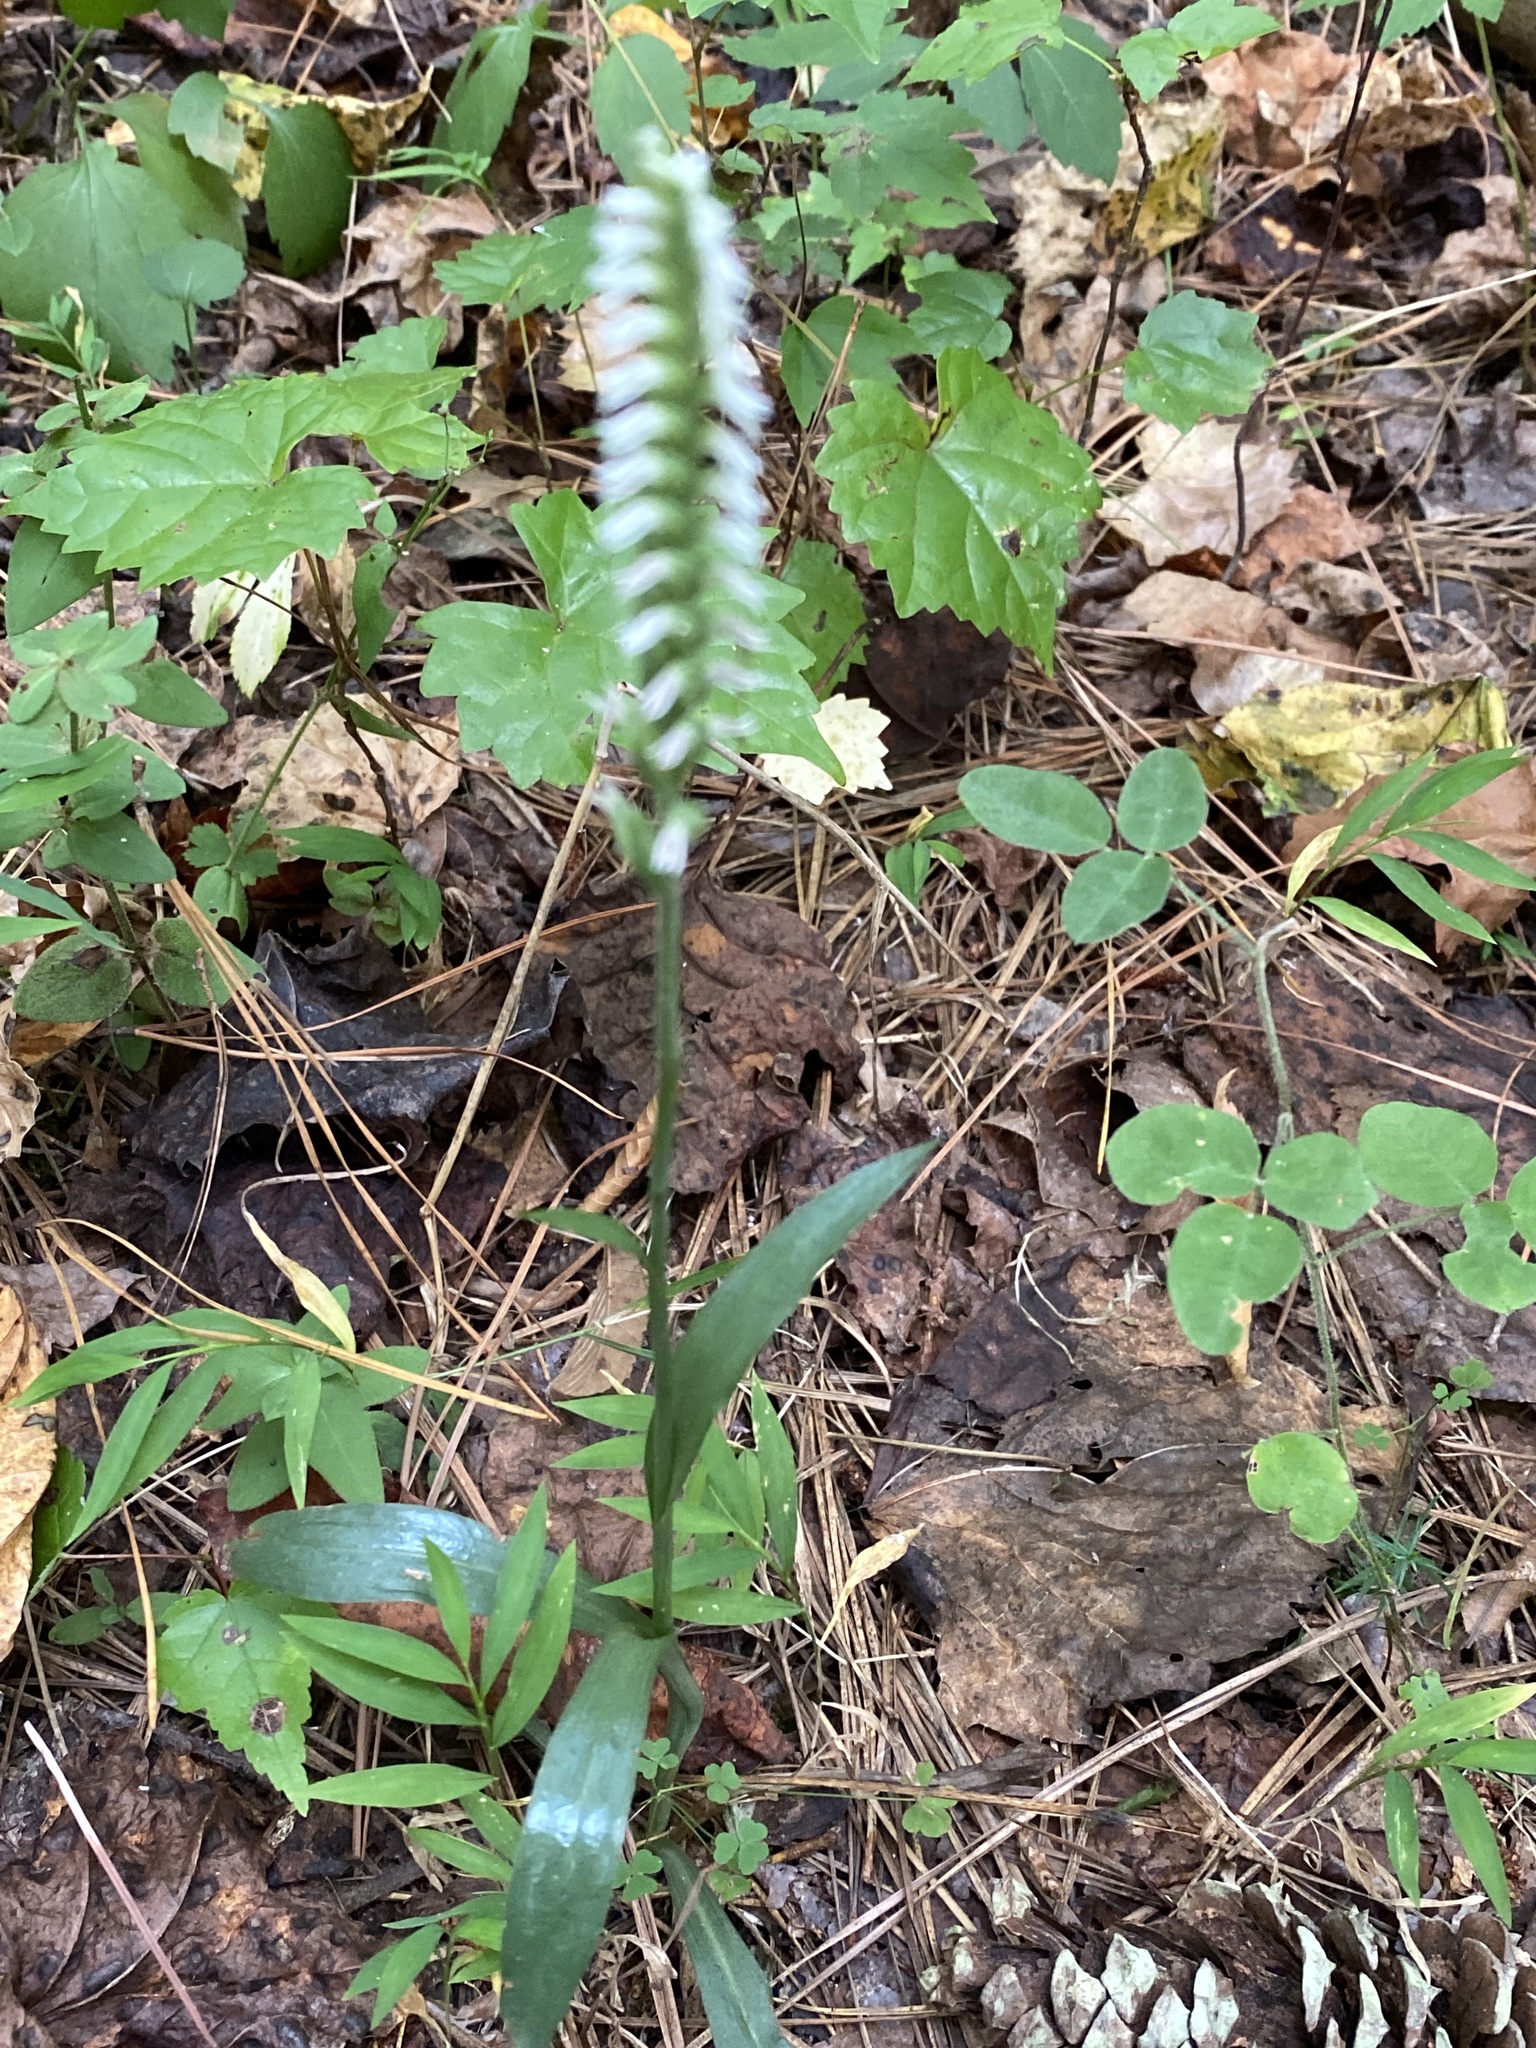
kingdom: Plantae
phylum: Tracheophyta
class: Liliopsida
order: Asparagales
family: Orchidaceae
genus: Spiranthes
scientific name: Spiranthes ovalis
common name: October ladies'-tresses
